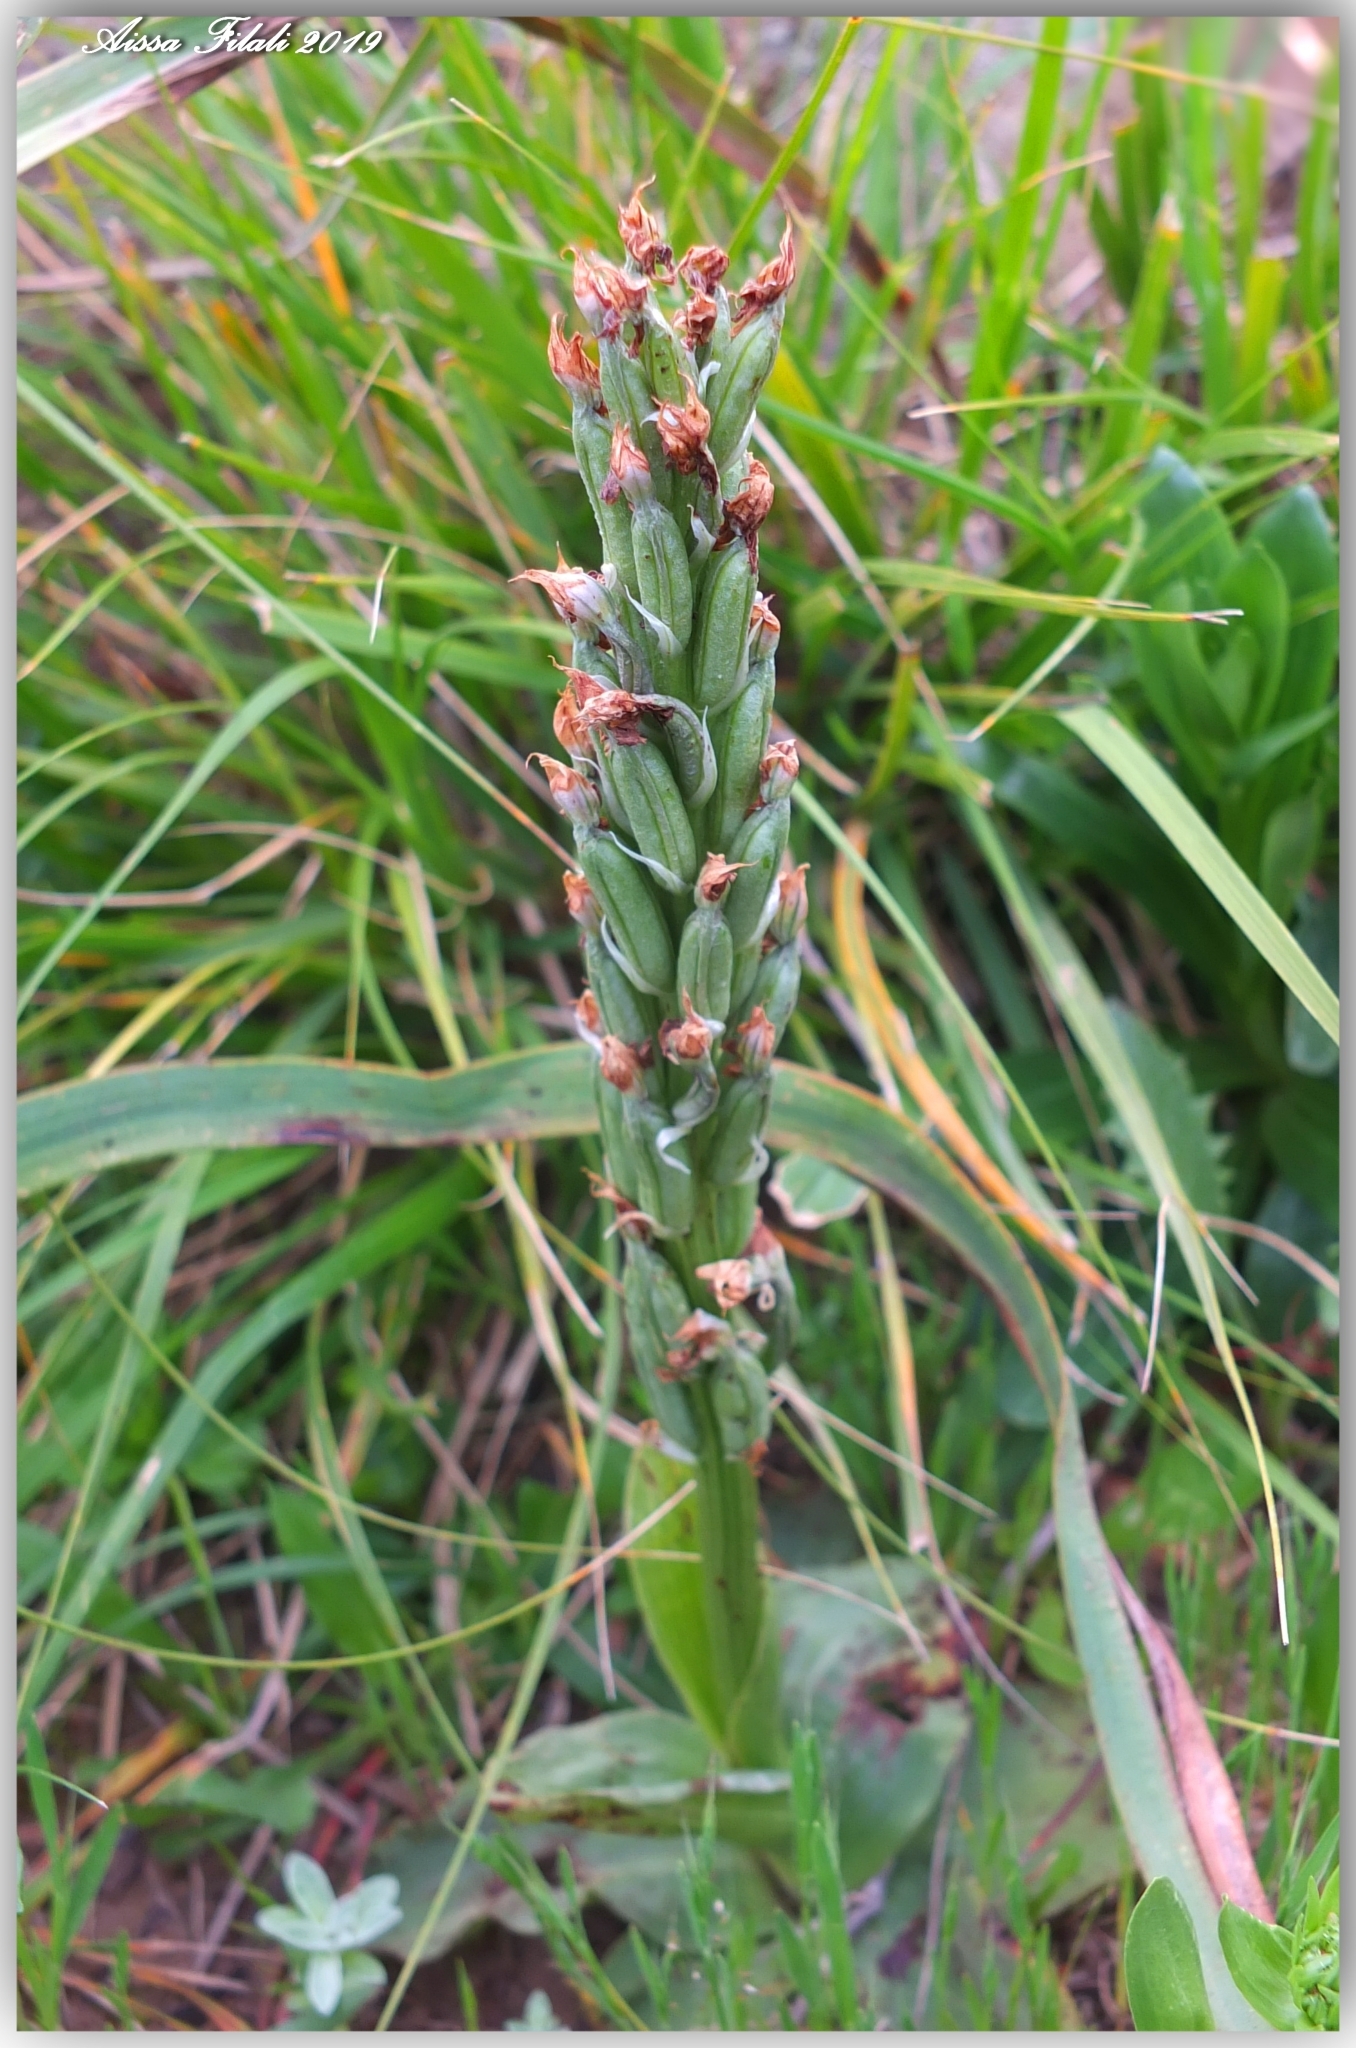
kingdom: Plantae
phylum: Tracheophyta
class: Liliopsida
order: Asparagales
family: Orchidaceae
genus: Neotinea
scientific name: Neotinea maculata
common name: Dense-flowered orchid
